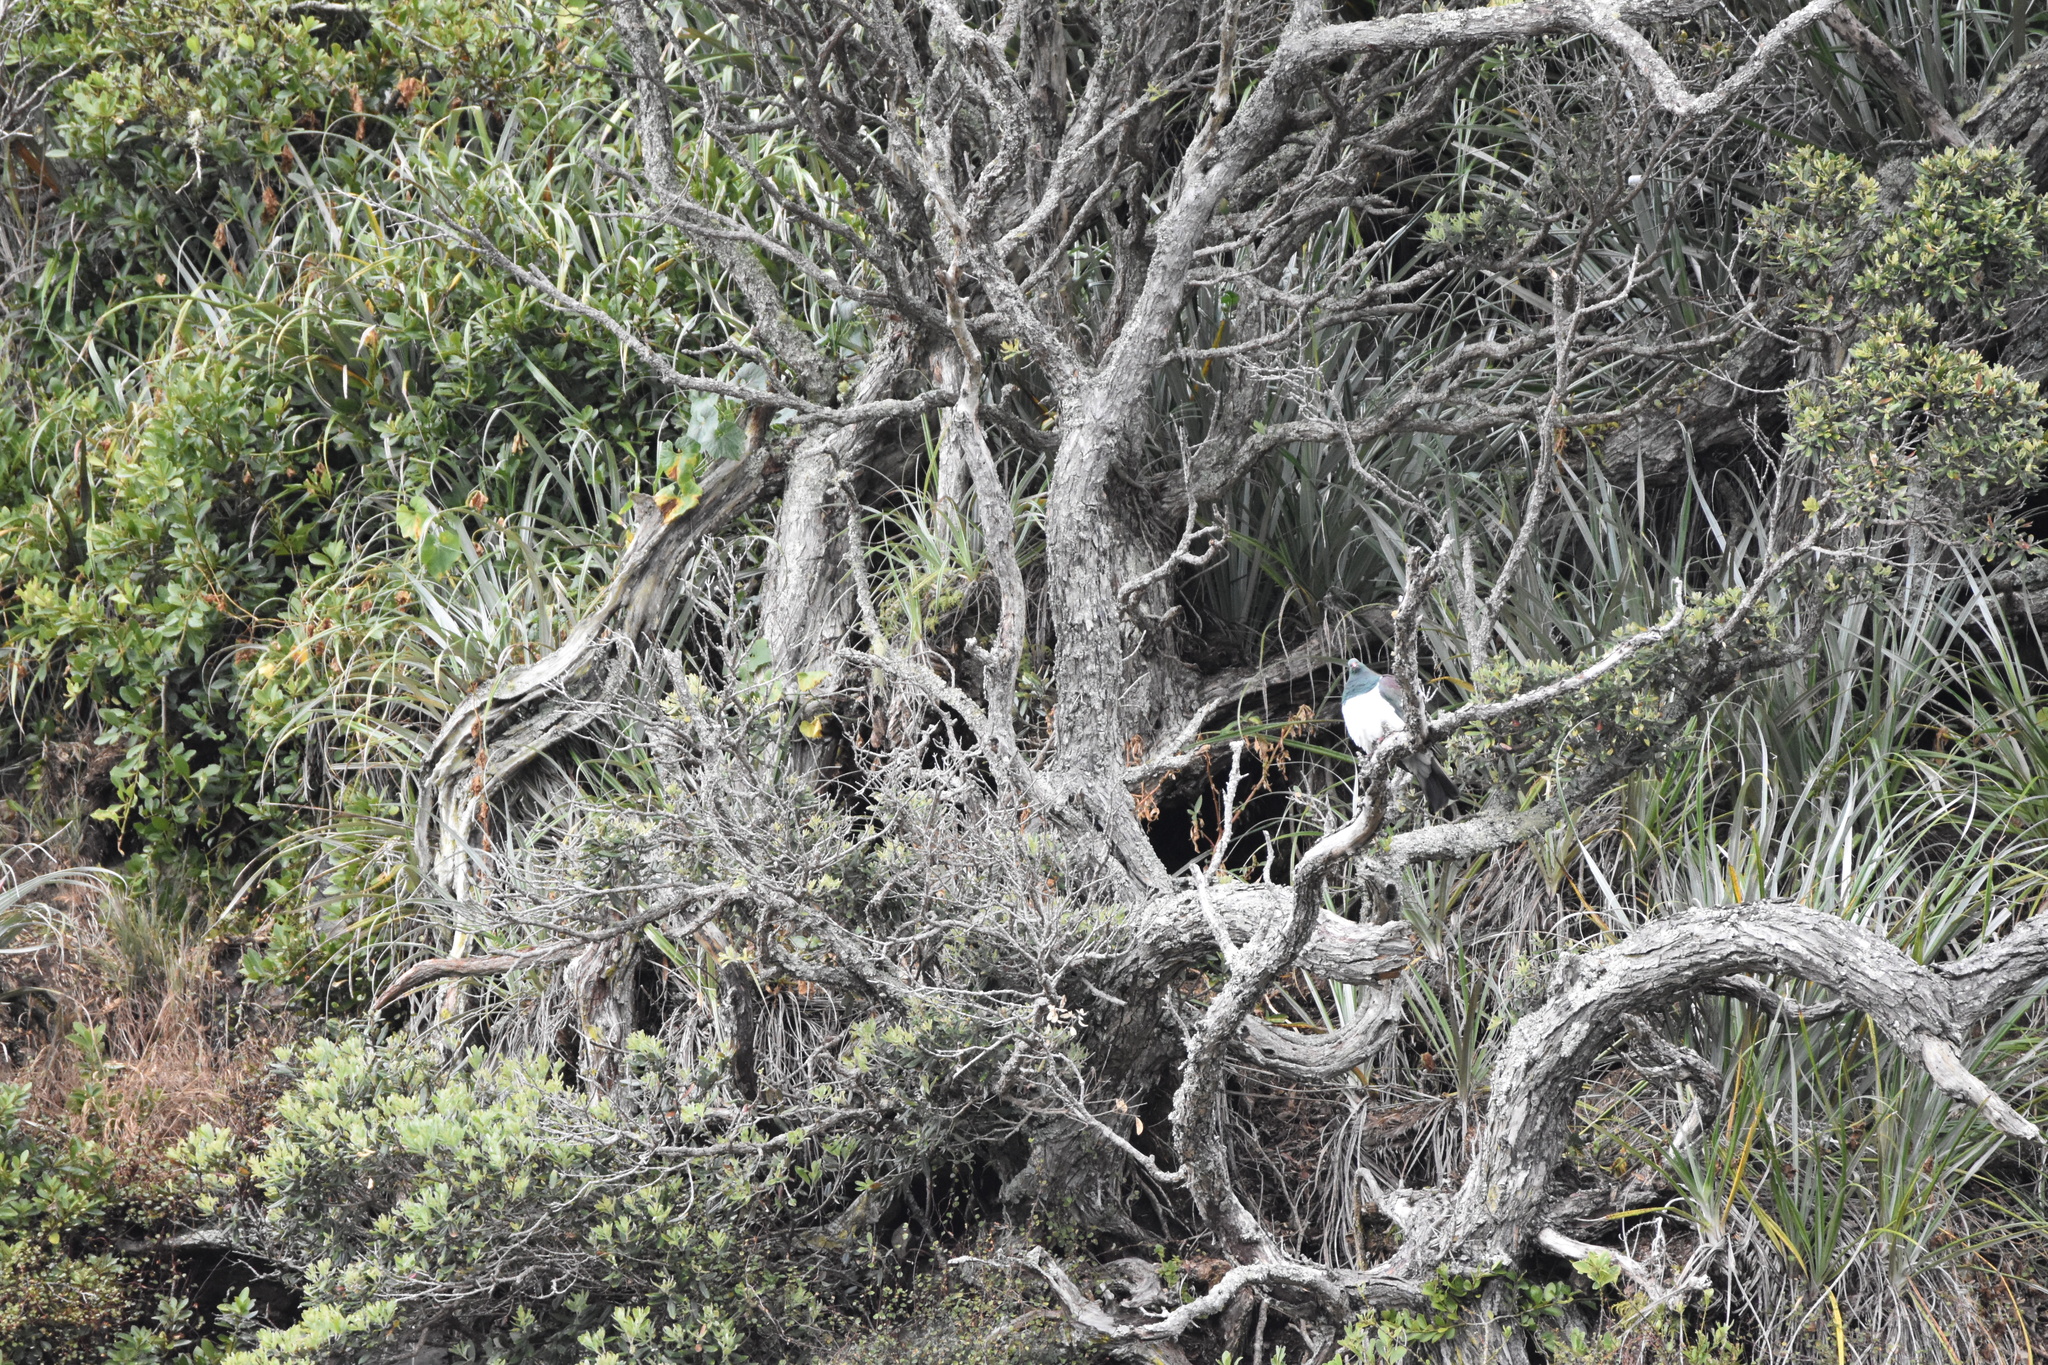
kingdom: Animalia
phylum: Chordata
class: Aves
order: Columbiformes
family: Columbidae
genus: Hemiphaga
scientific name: Hemiphaga novaeseelandiae
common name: New zealand pigeon
